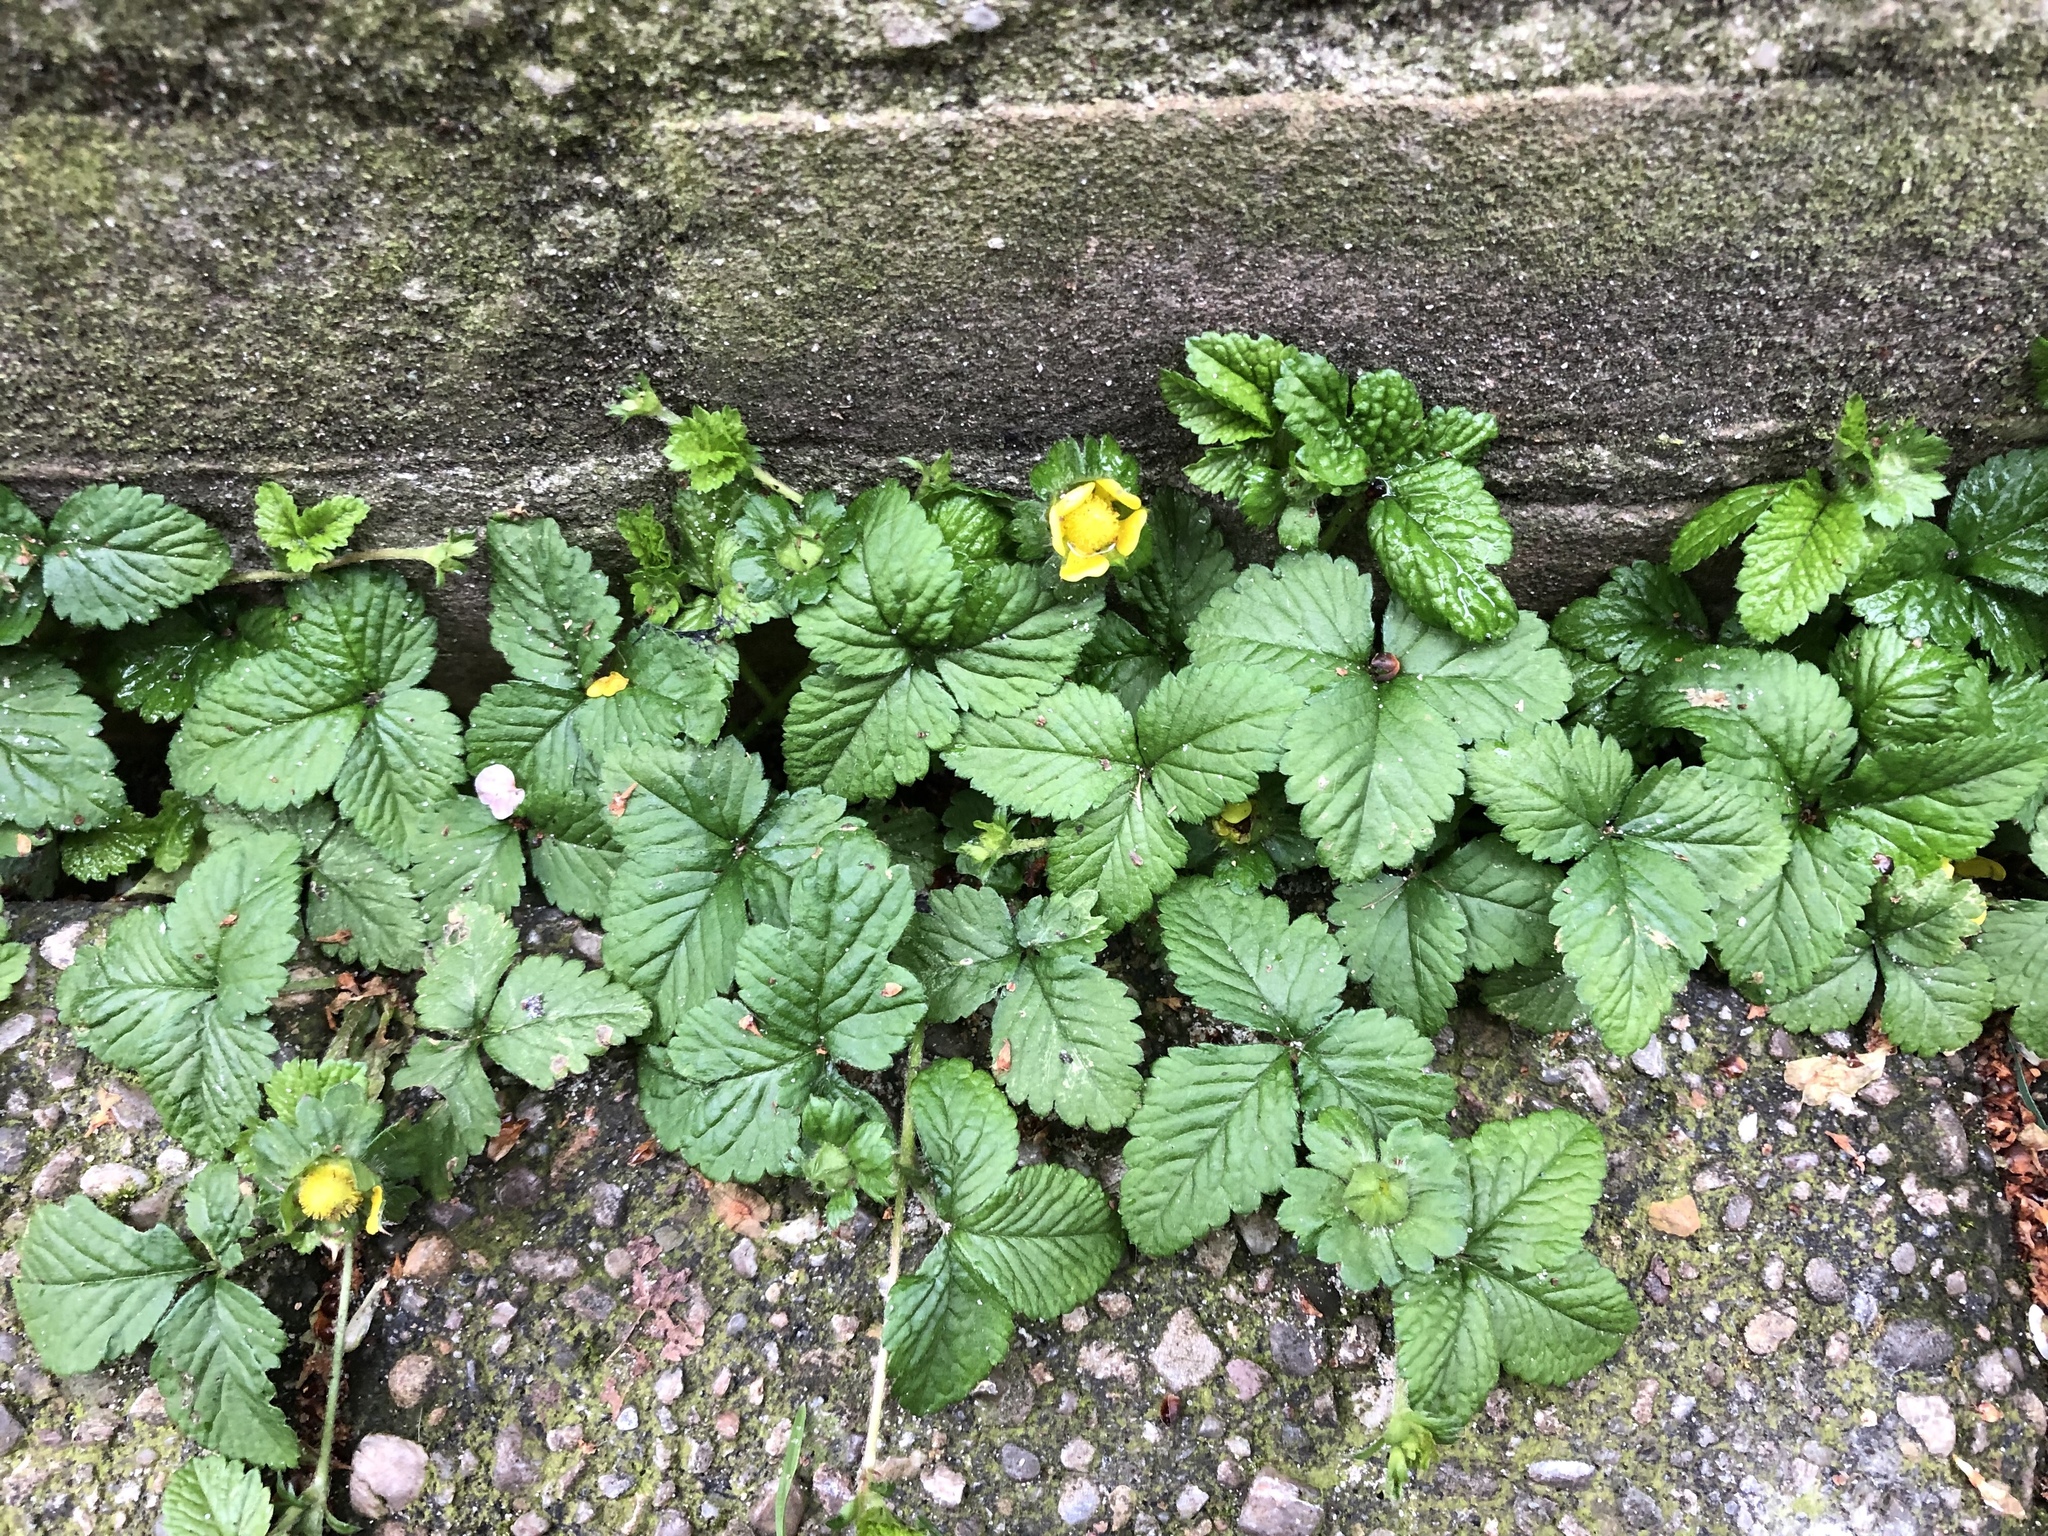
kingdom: Plantae
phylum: Tracheophyta
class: Magnoliopsida
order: Rosales
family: Rosaceae
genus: Potentilla
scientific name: Potentilla indica
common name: Yellow-flowered strawberry
